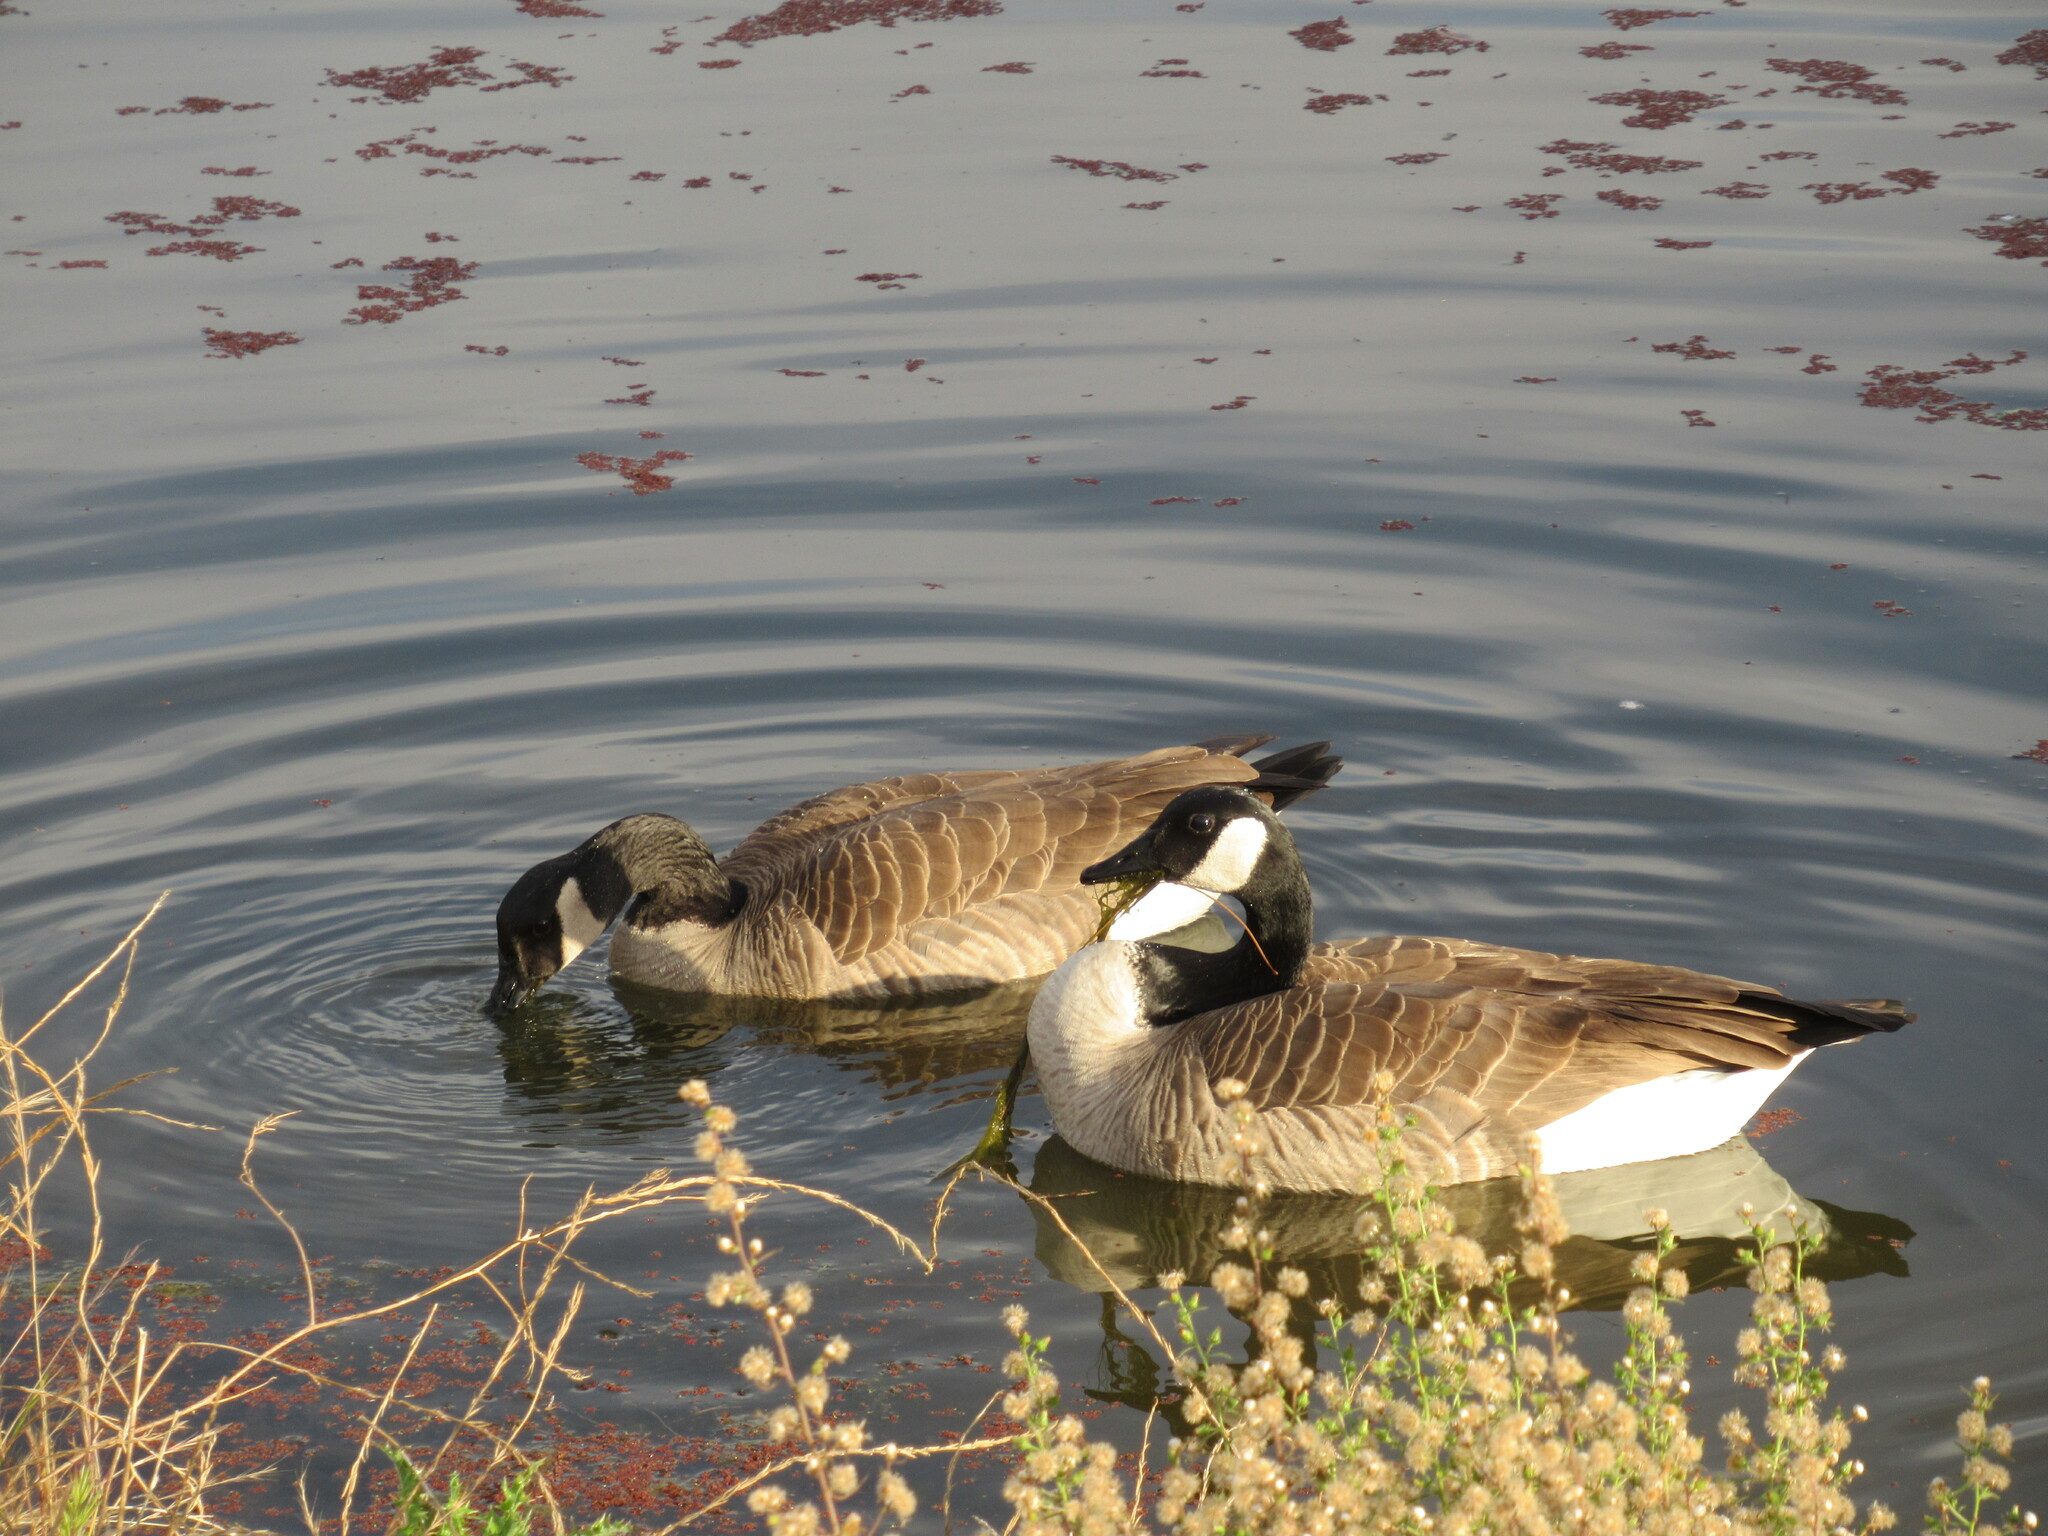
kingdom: Animalia
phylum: Chordata
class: Aves
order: Anseriformes
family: Anatidae
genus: Branta
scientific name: Branta canadensis
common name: Canada goose
